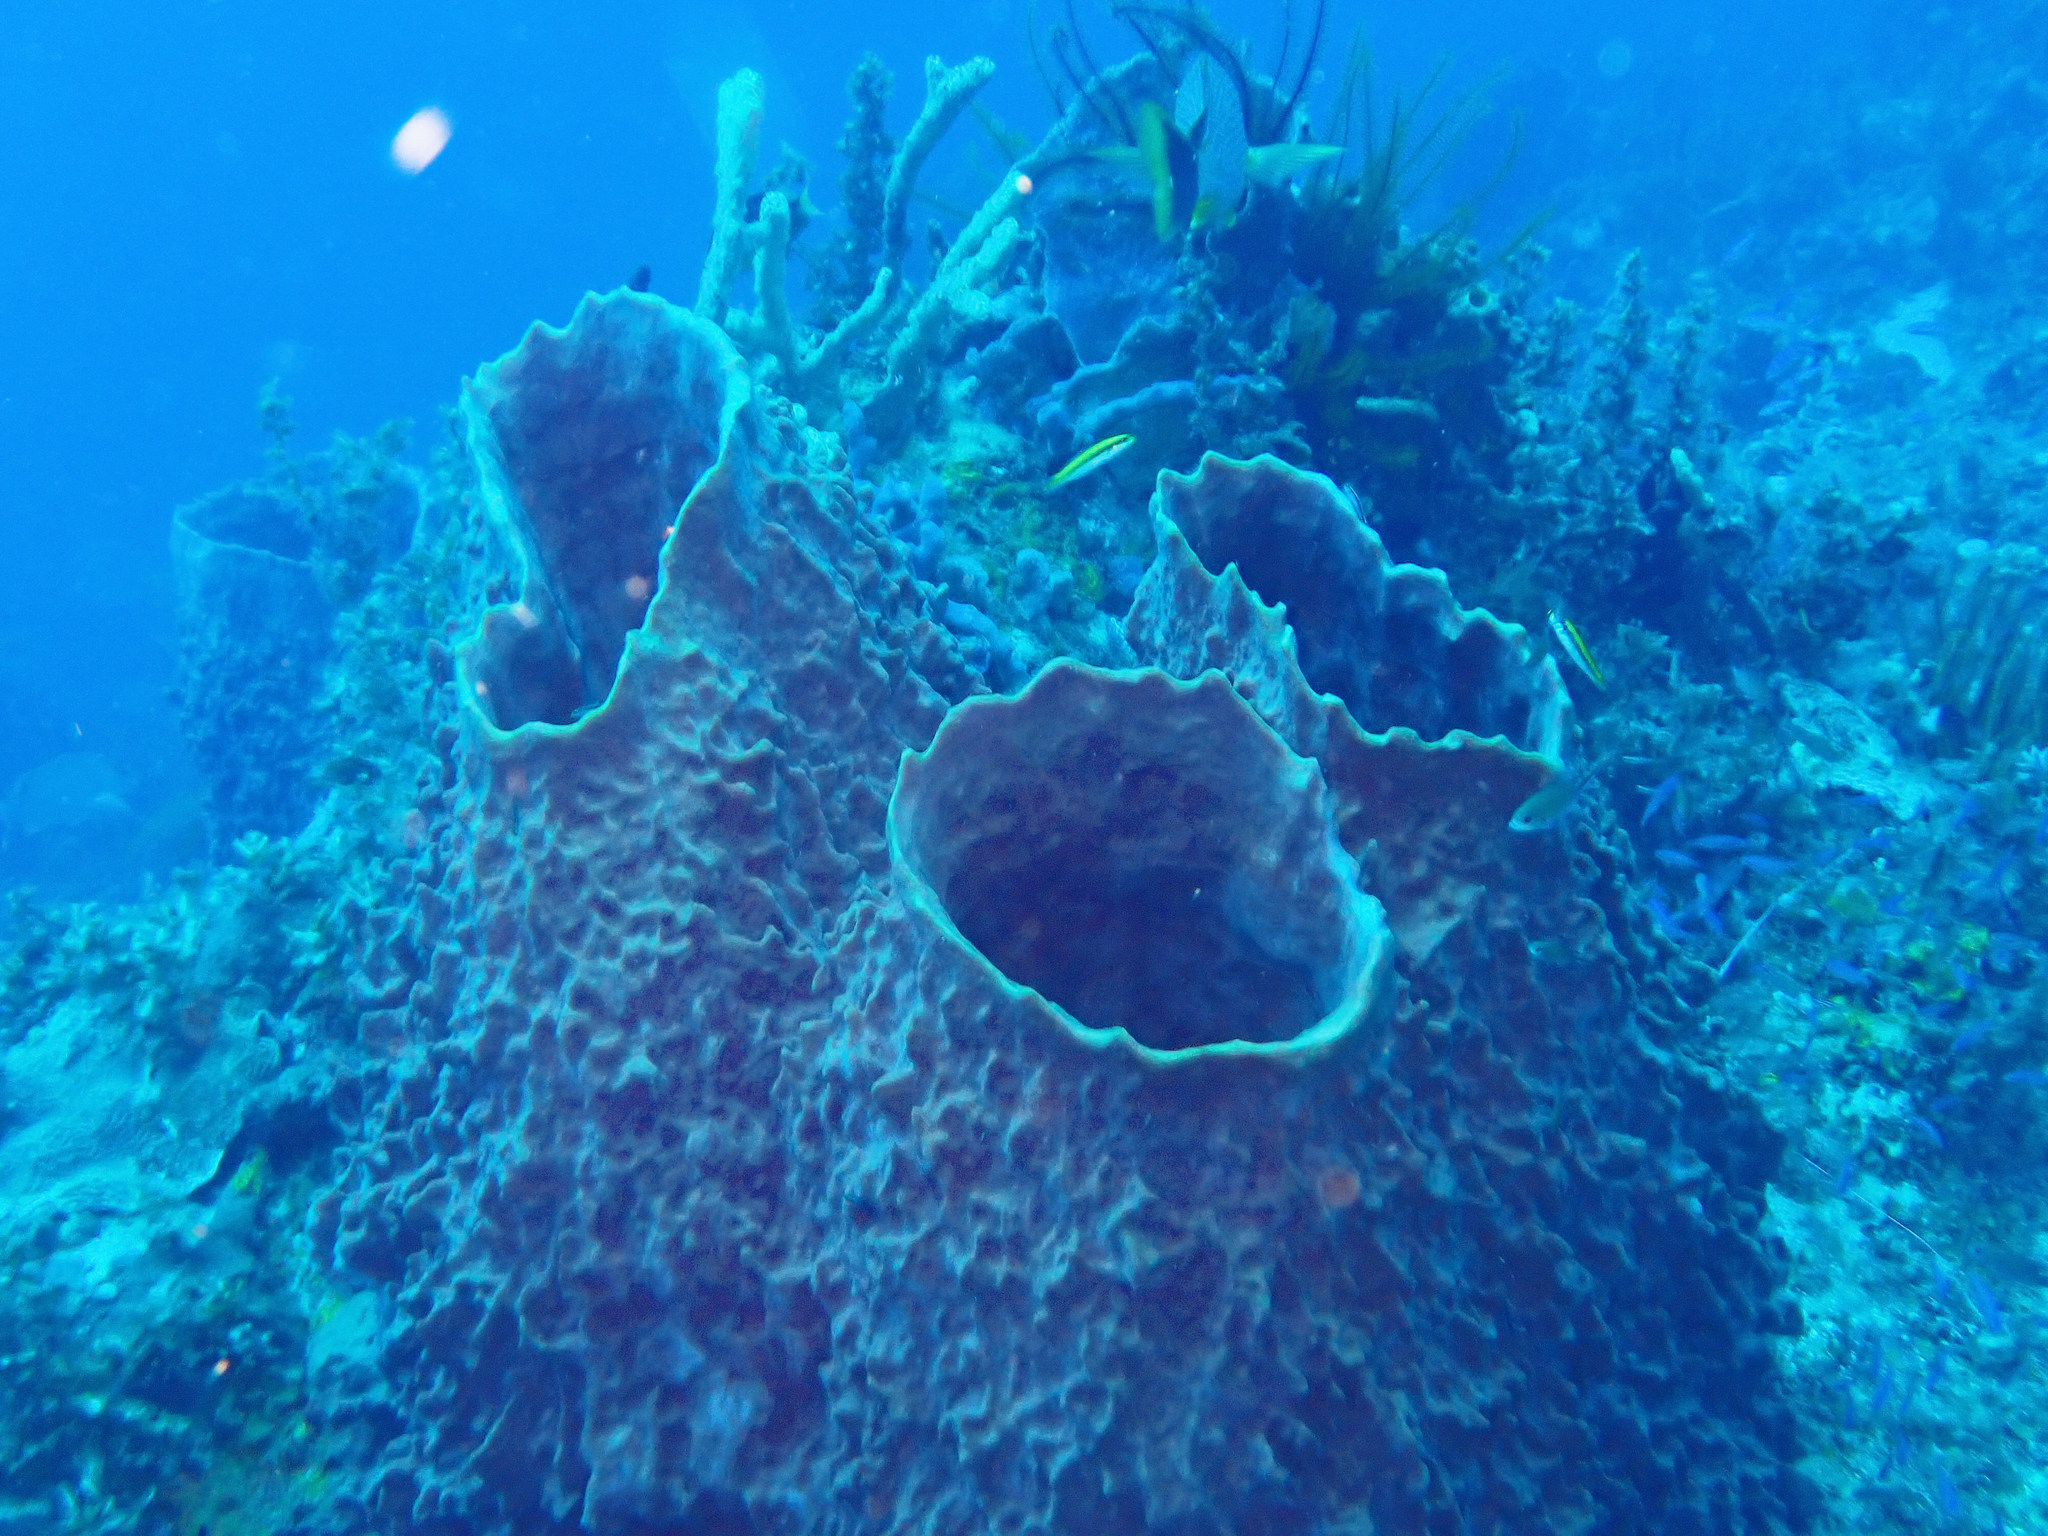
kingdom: Animalia
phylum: Porifera
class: Demospongiae
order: Haplosclerida
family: Petrosiidae
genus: Xestospongia
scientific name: Xestospongia muta
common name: Giant barrel sponge
